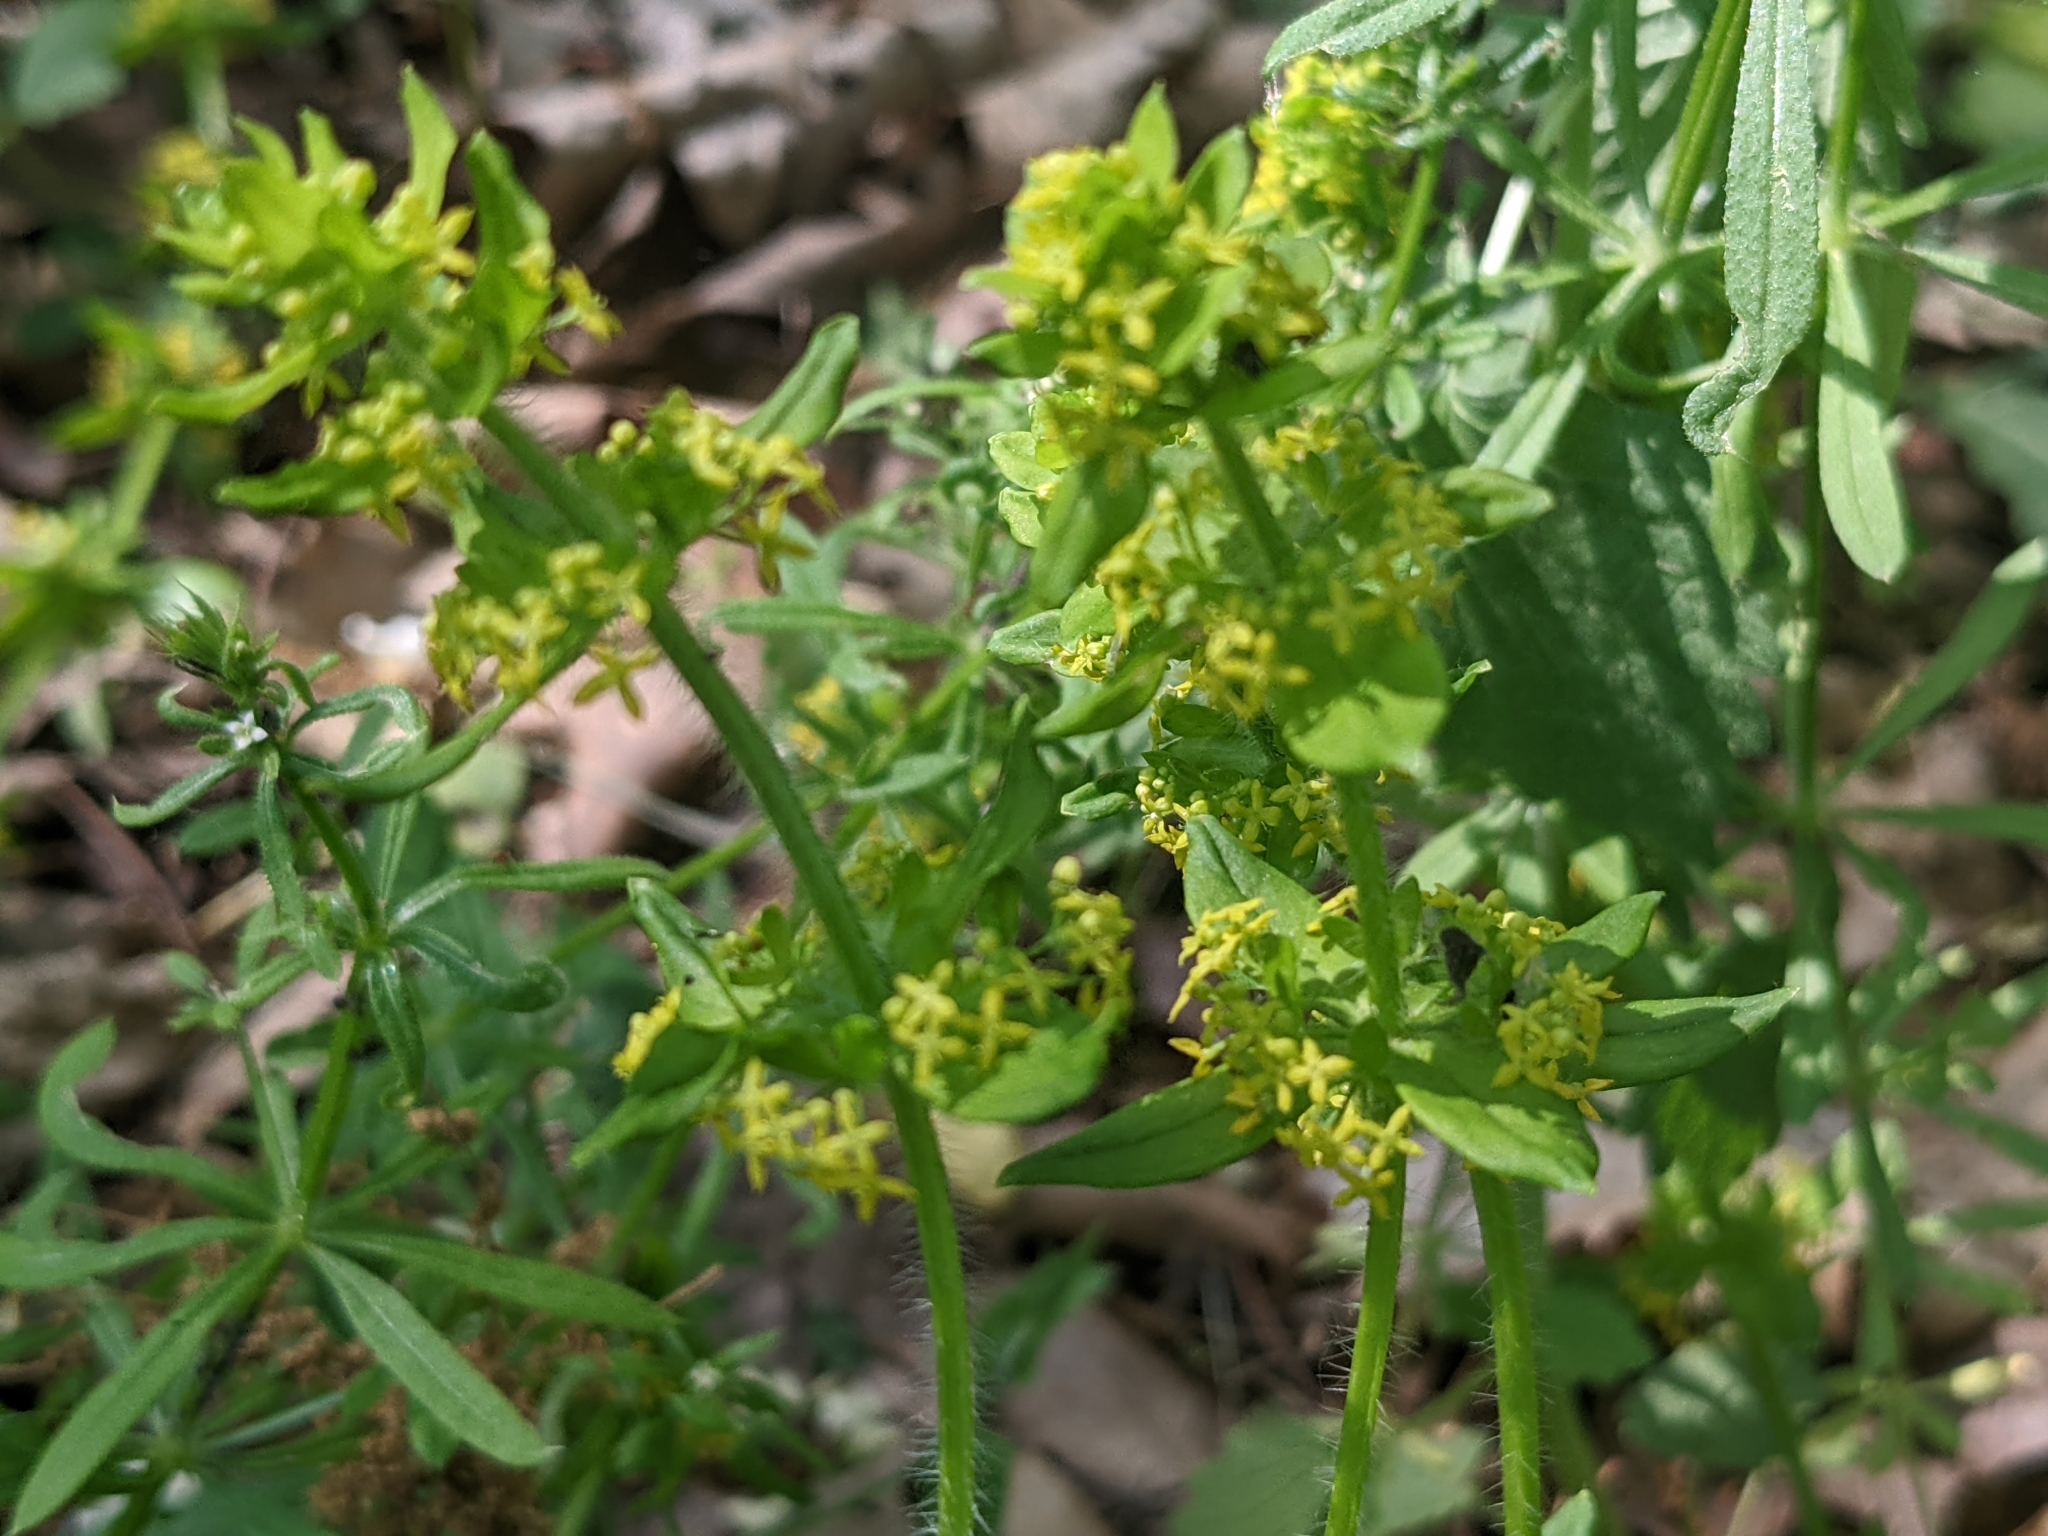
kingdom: Plantae
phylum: Tracheophyta
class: Magnoliopsida
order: Gentianales
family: Rubiaceae
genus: Cruciata
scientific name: Cruciata laevipes
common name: Crosswort
